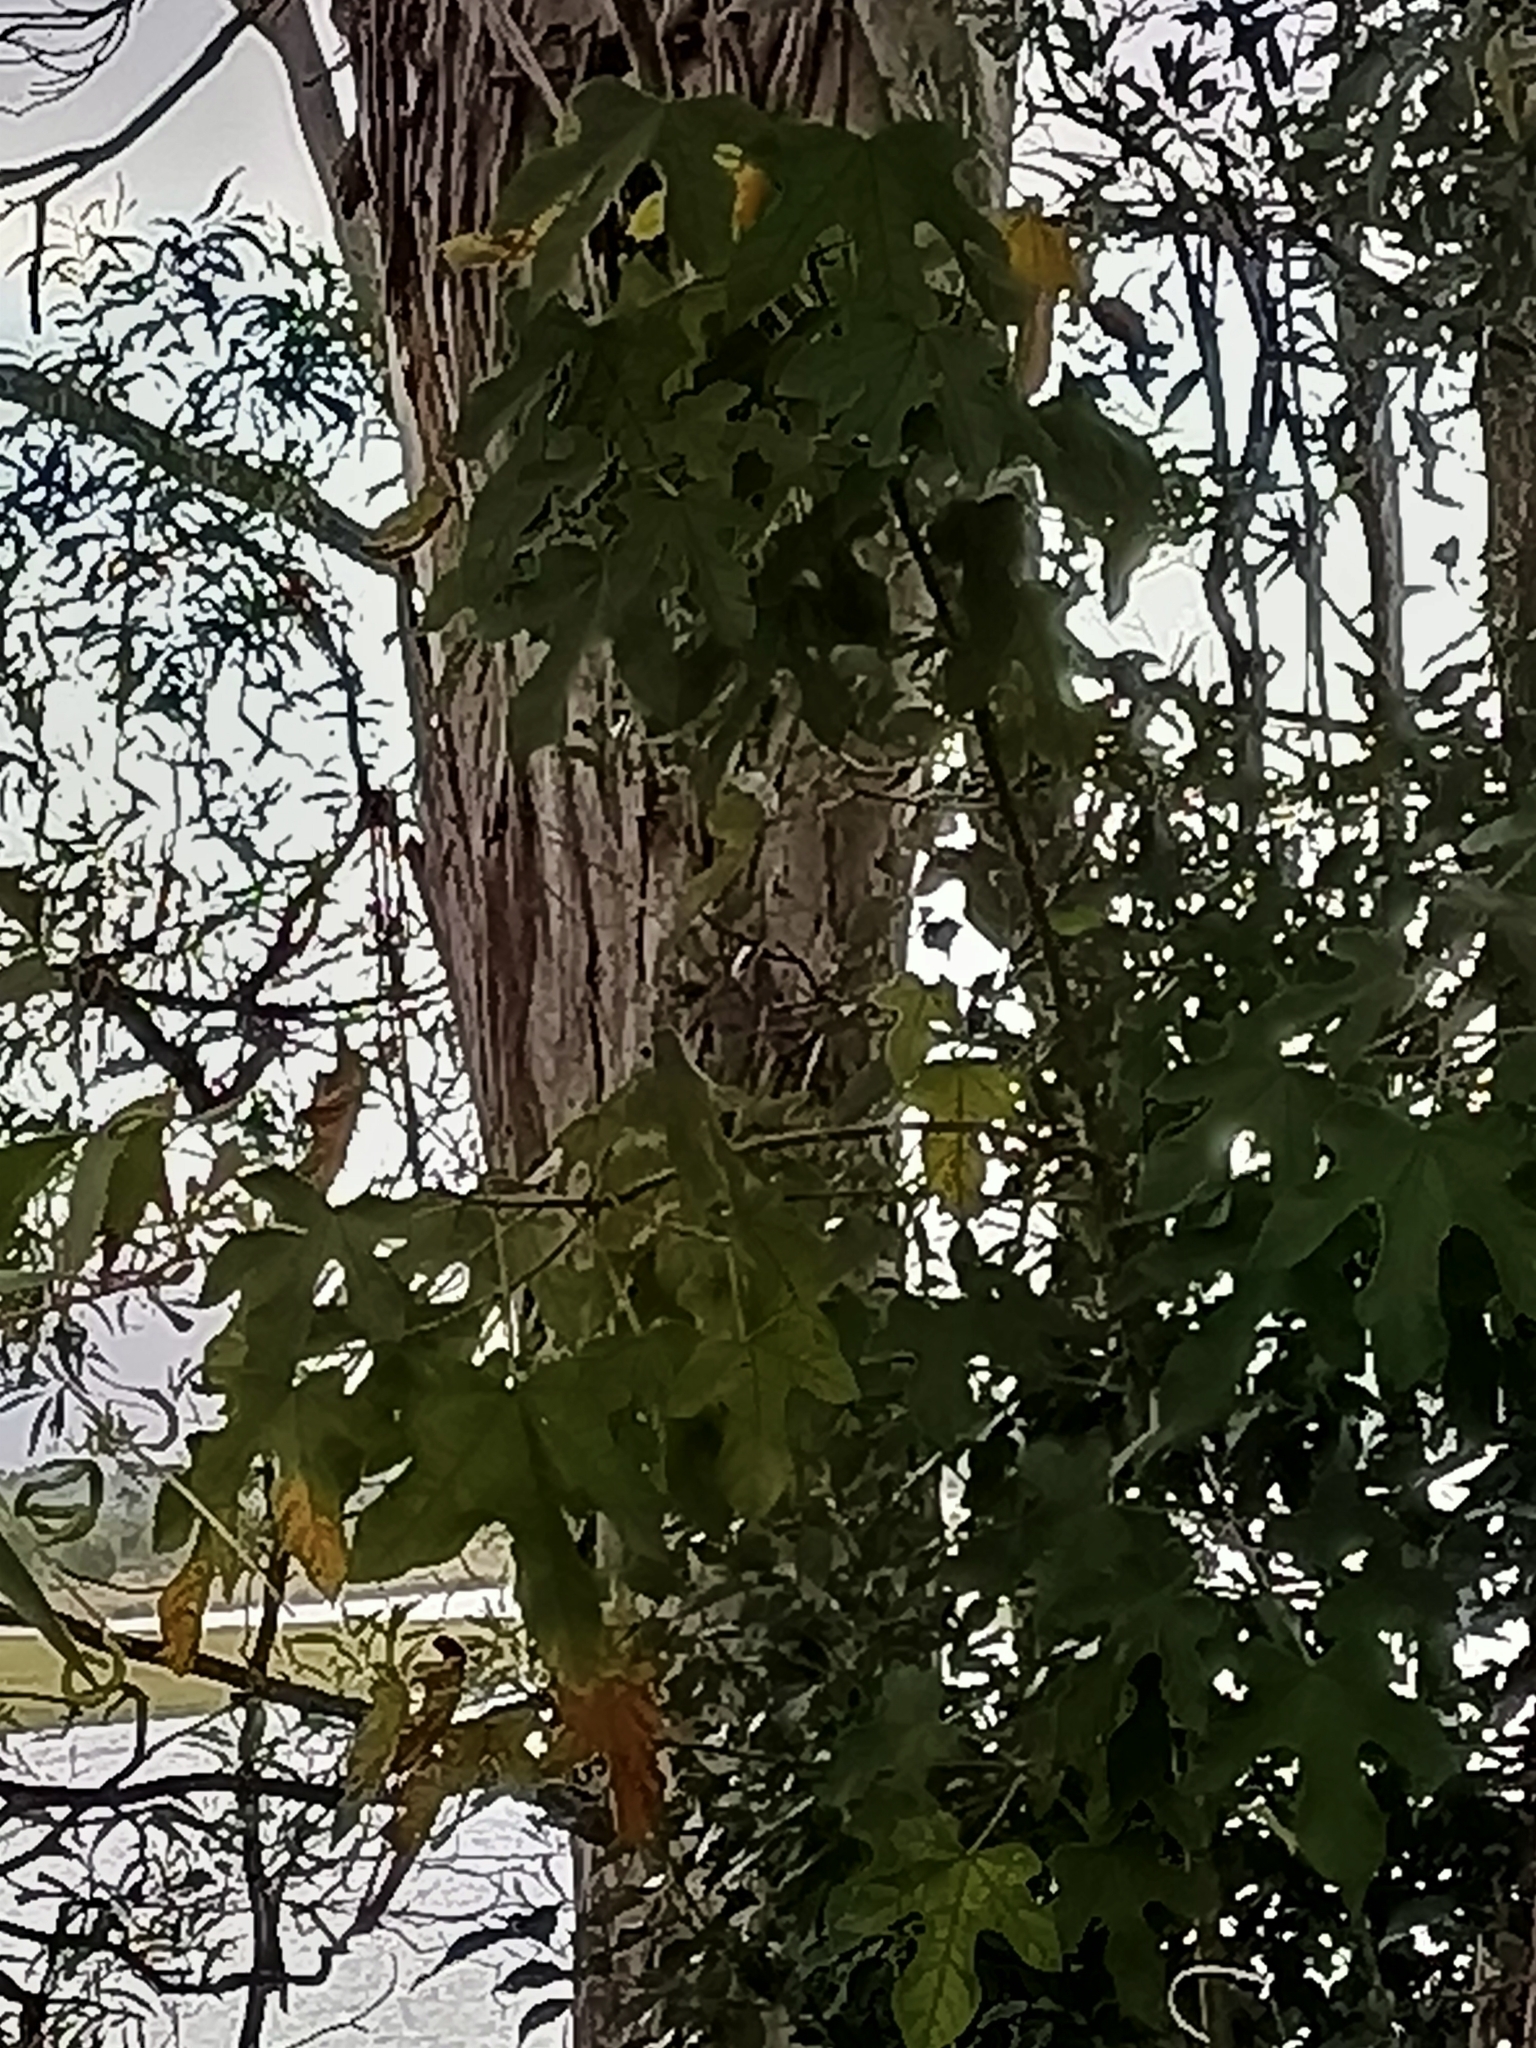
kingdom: Plantae
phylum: Tracheophyta
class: Magnoliopsida
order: Malvales
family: Malvaceae
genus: Brachychiton
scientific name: Brachychiton acerifolius
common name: Illawarra flame tree
